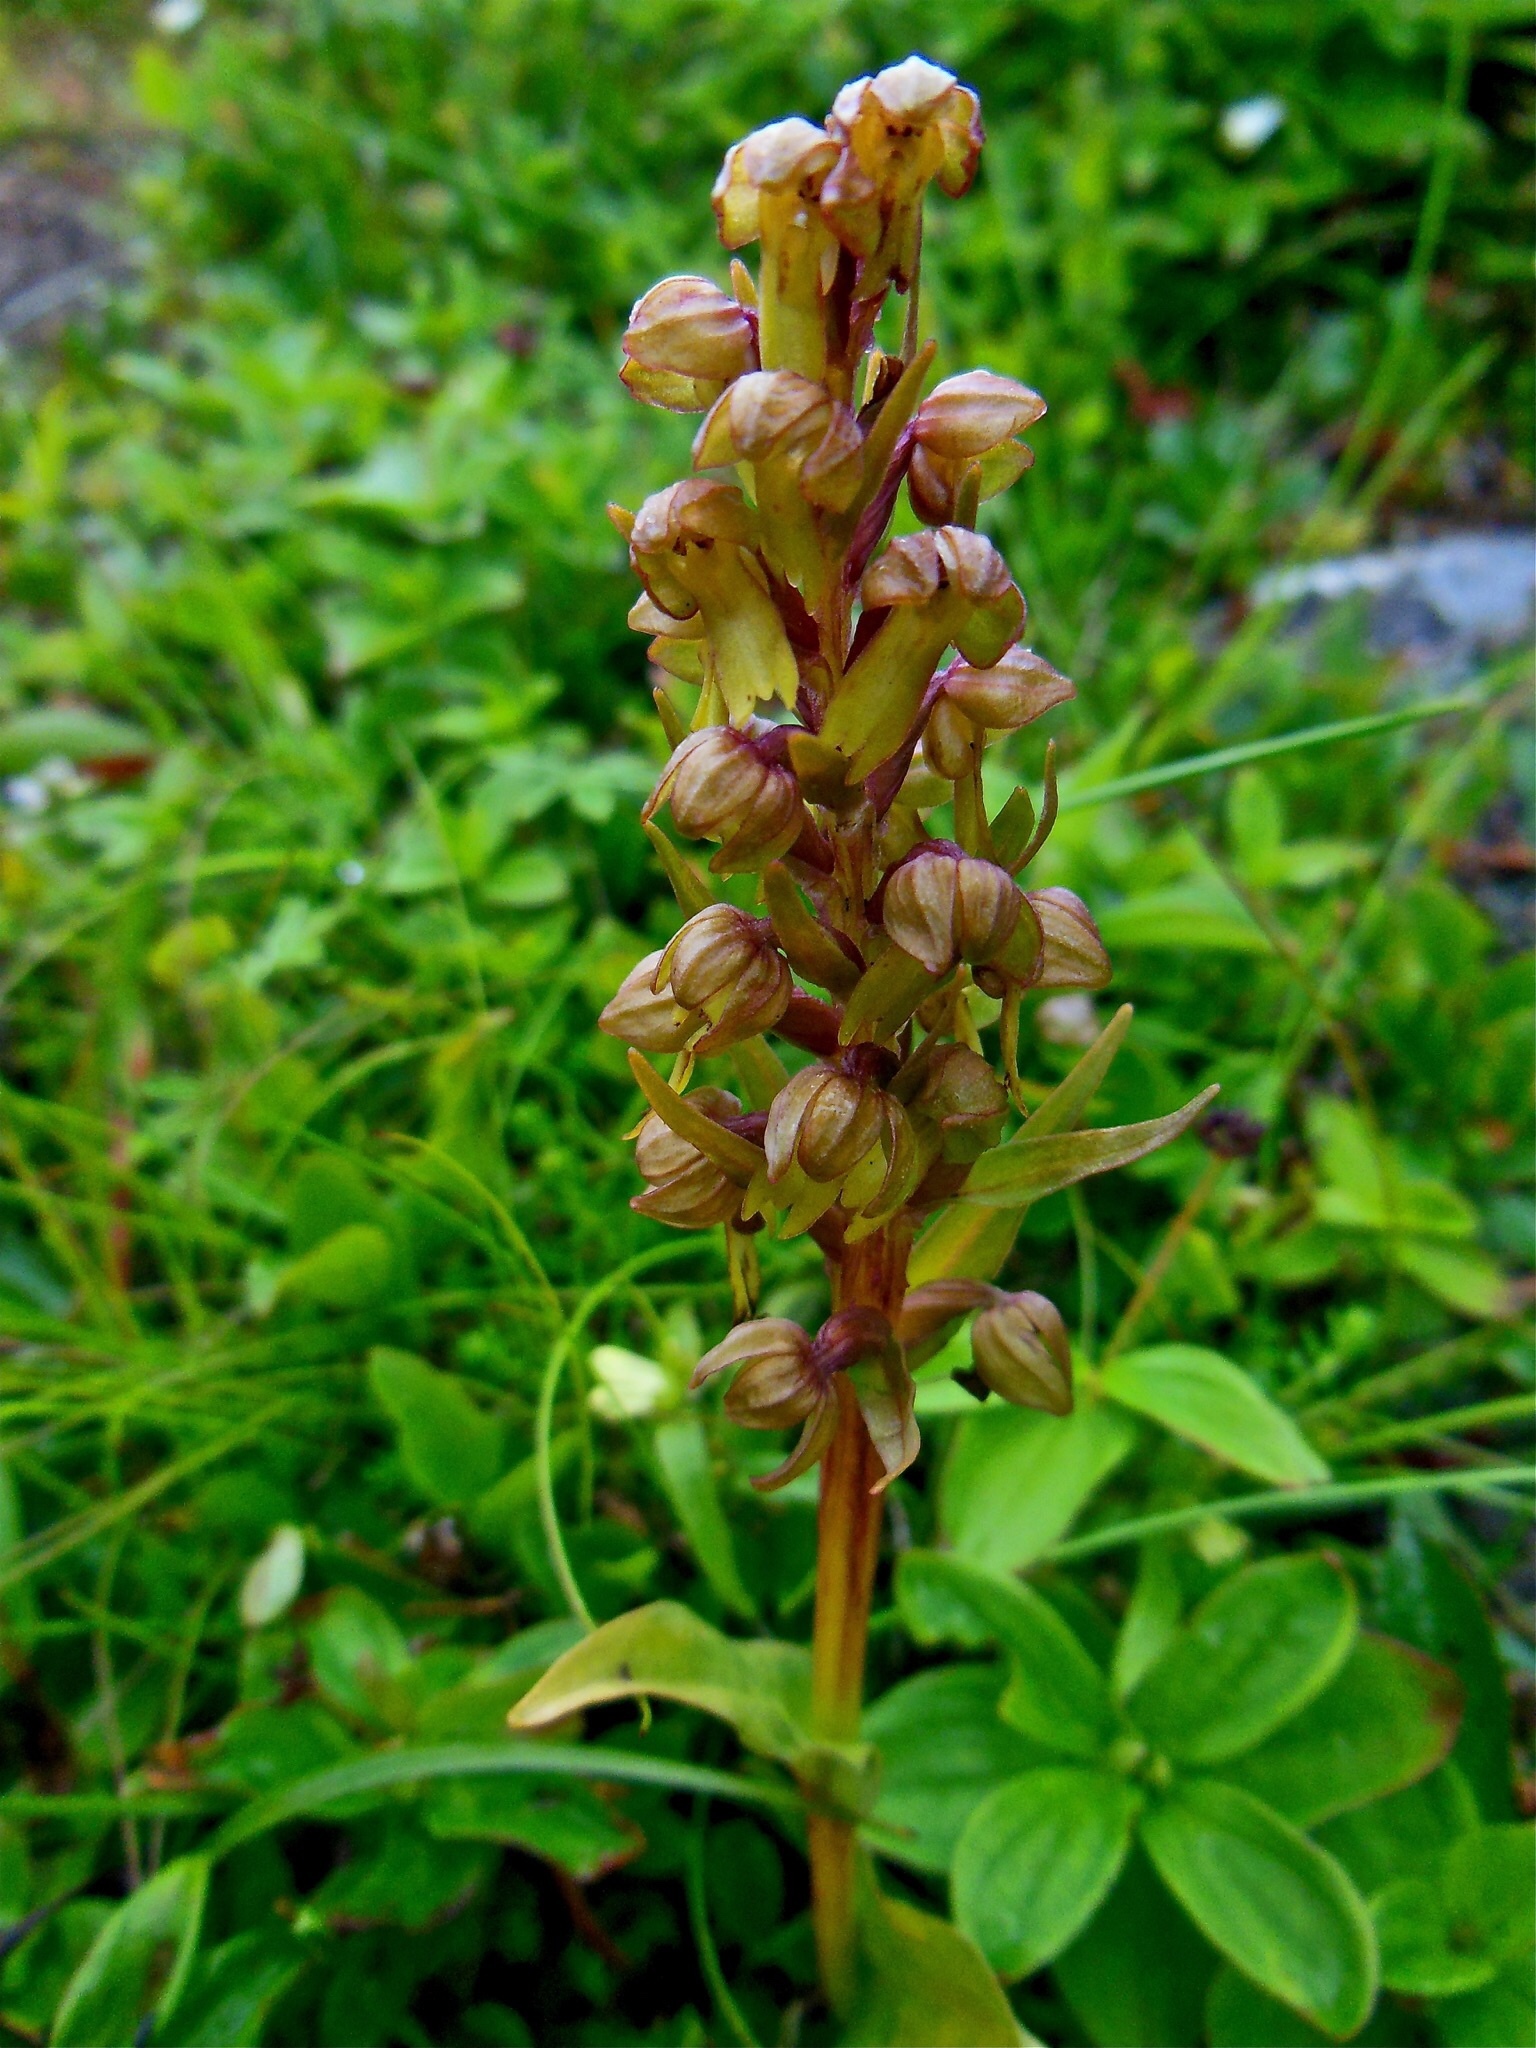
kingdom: Plantae
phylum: Tracheophyta
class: Liliopsida
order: Asparagales
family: Orchidaceae
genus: Dactylorhiza
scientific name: Dactylorhiza viridis
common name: Longbract frog orchid
